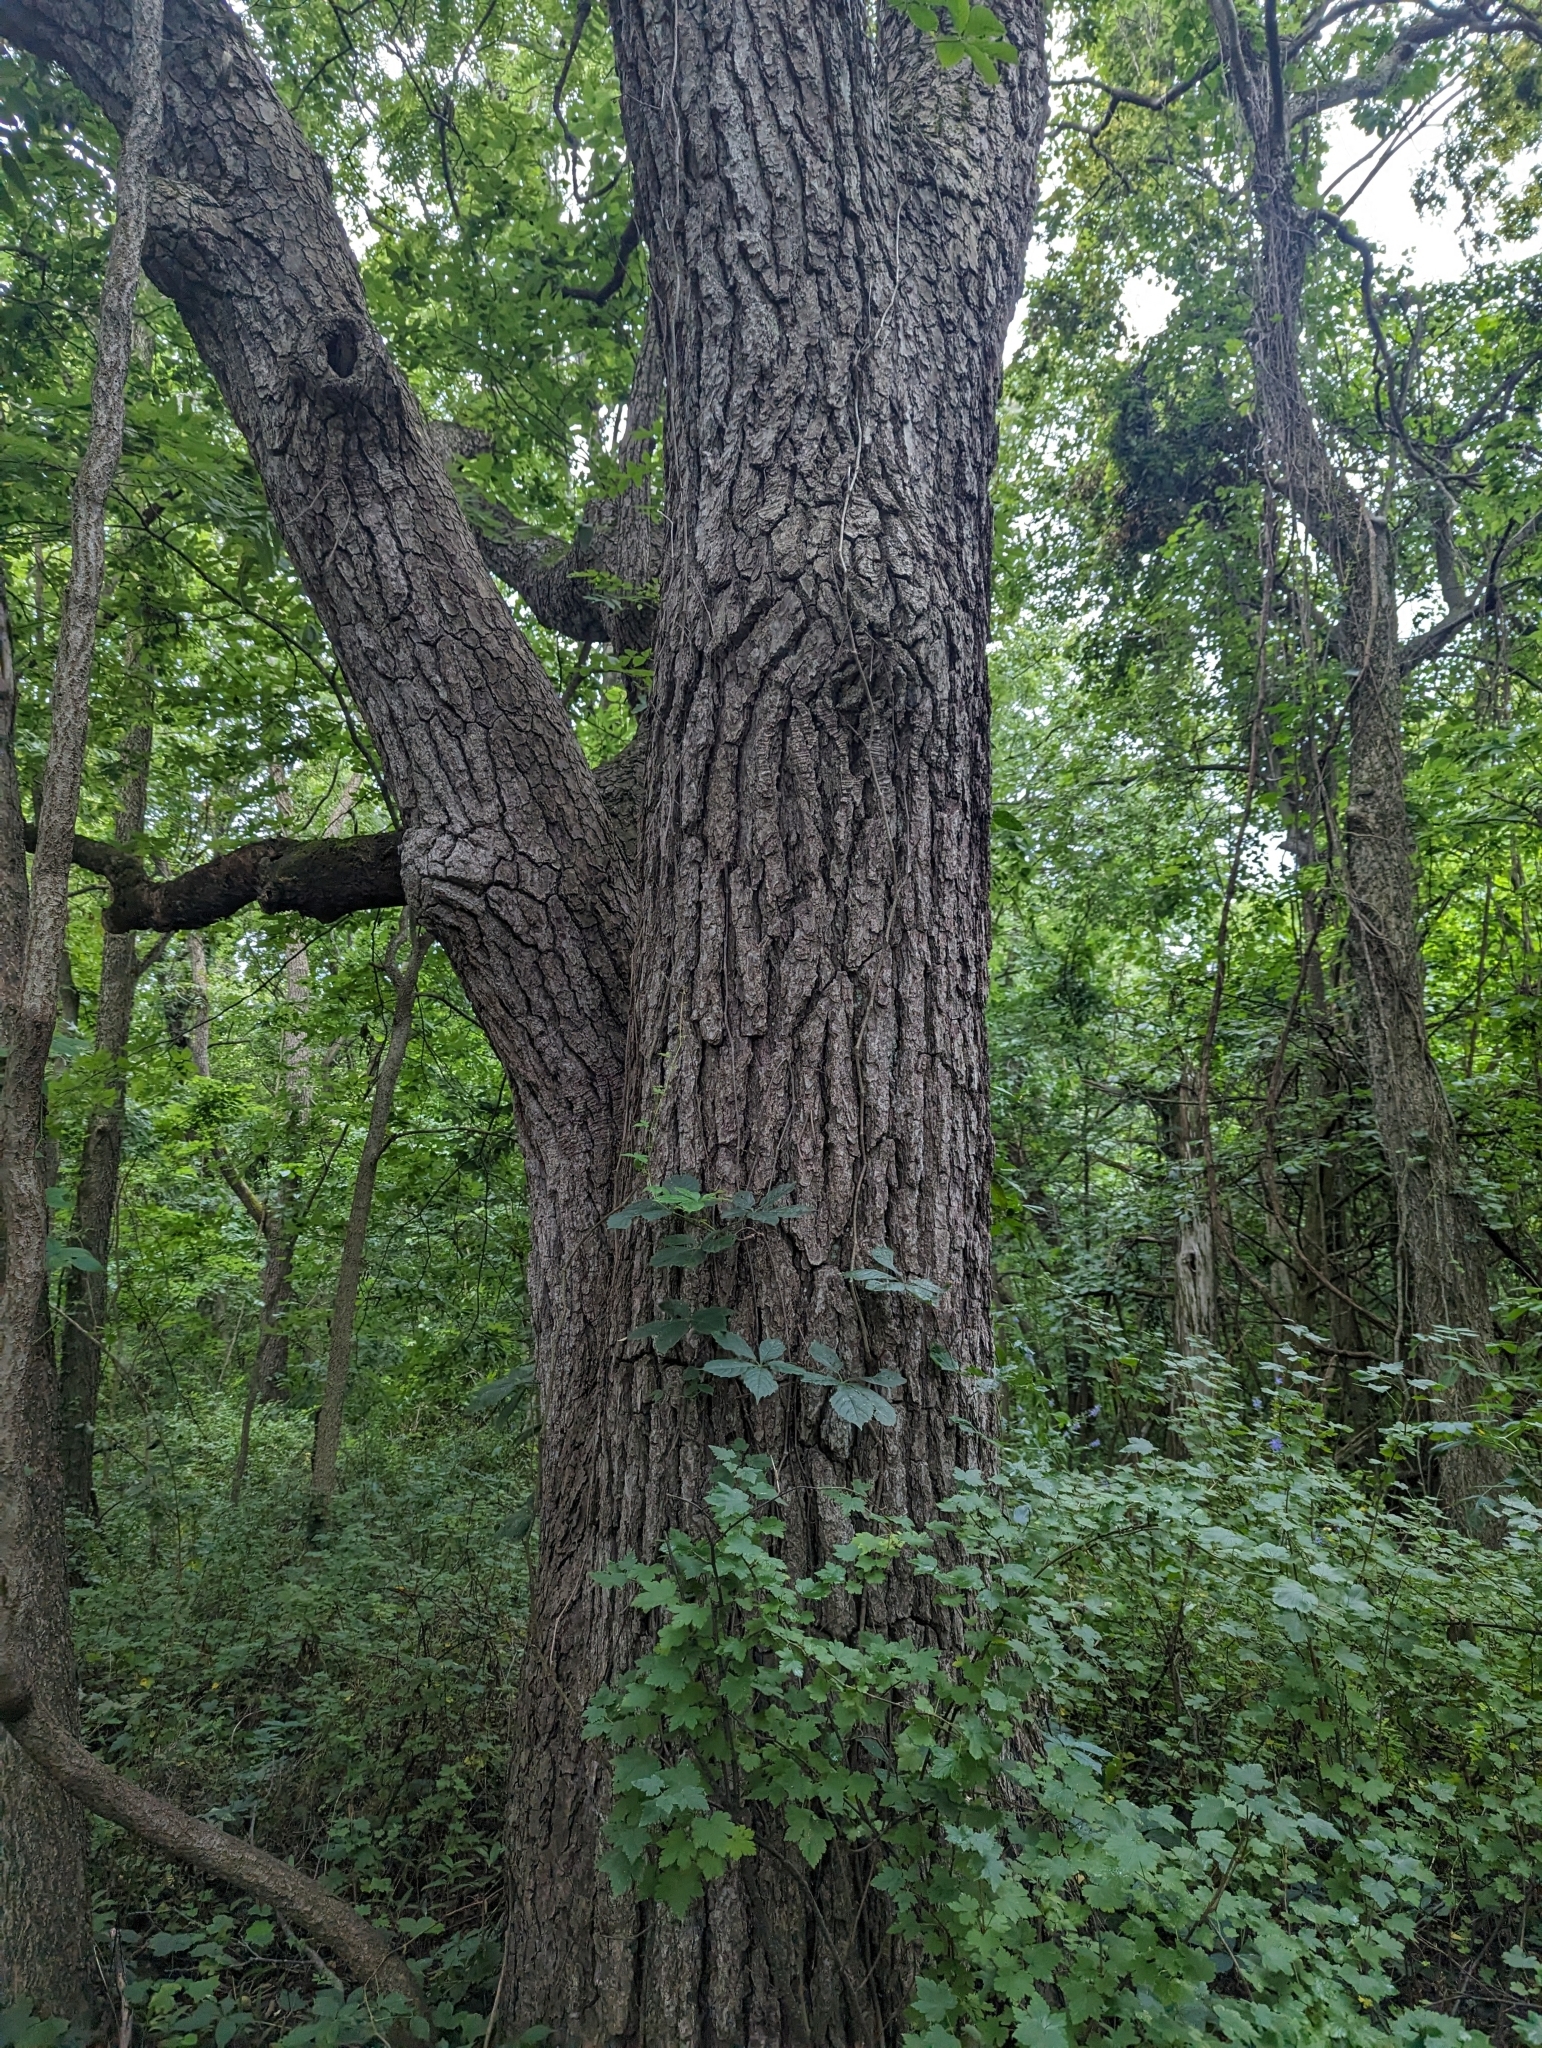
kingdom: Plantae
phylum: Tracheophyta
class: Magnoliopsida
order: Fagales
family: Juglandaceae
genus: Juglans
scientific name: Juglans nigra
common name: Black walnut
